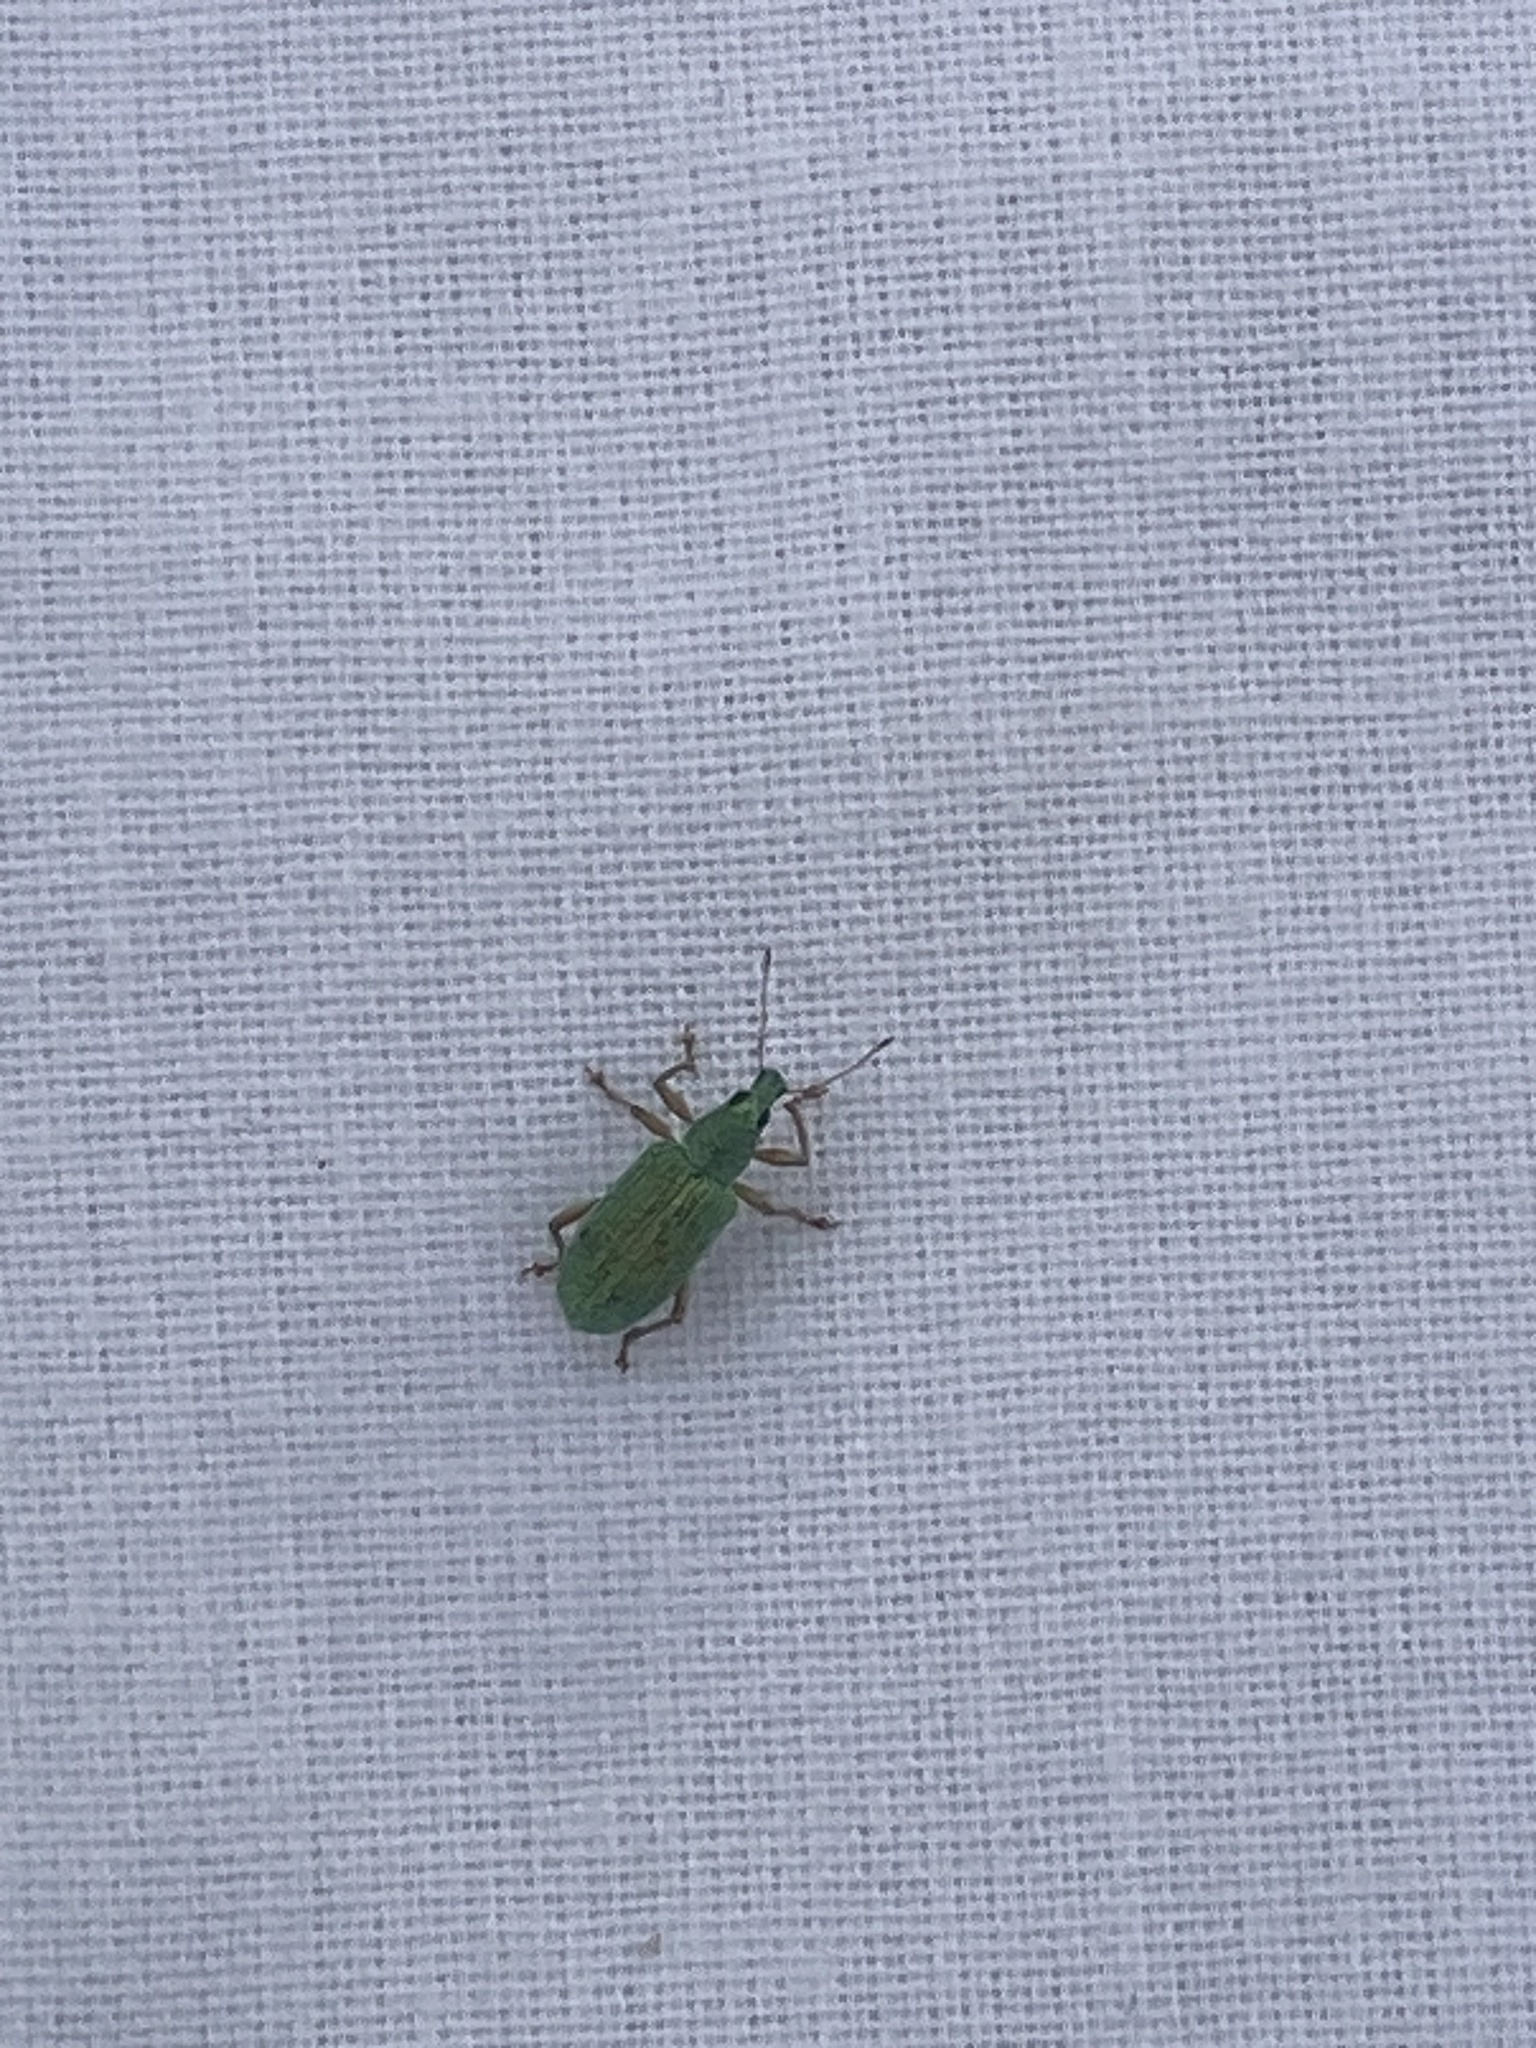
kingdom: Animalia
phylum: Arthropoda
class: Insecta
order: Coleoptera
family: Curculionidae
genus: Polydrusus
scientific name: Polydrusus formosus
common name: Weevil
